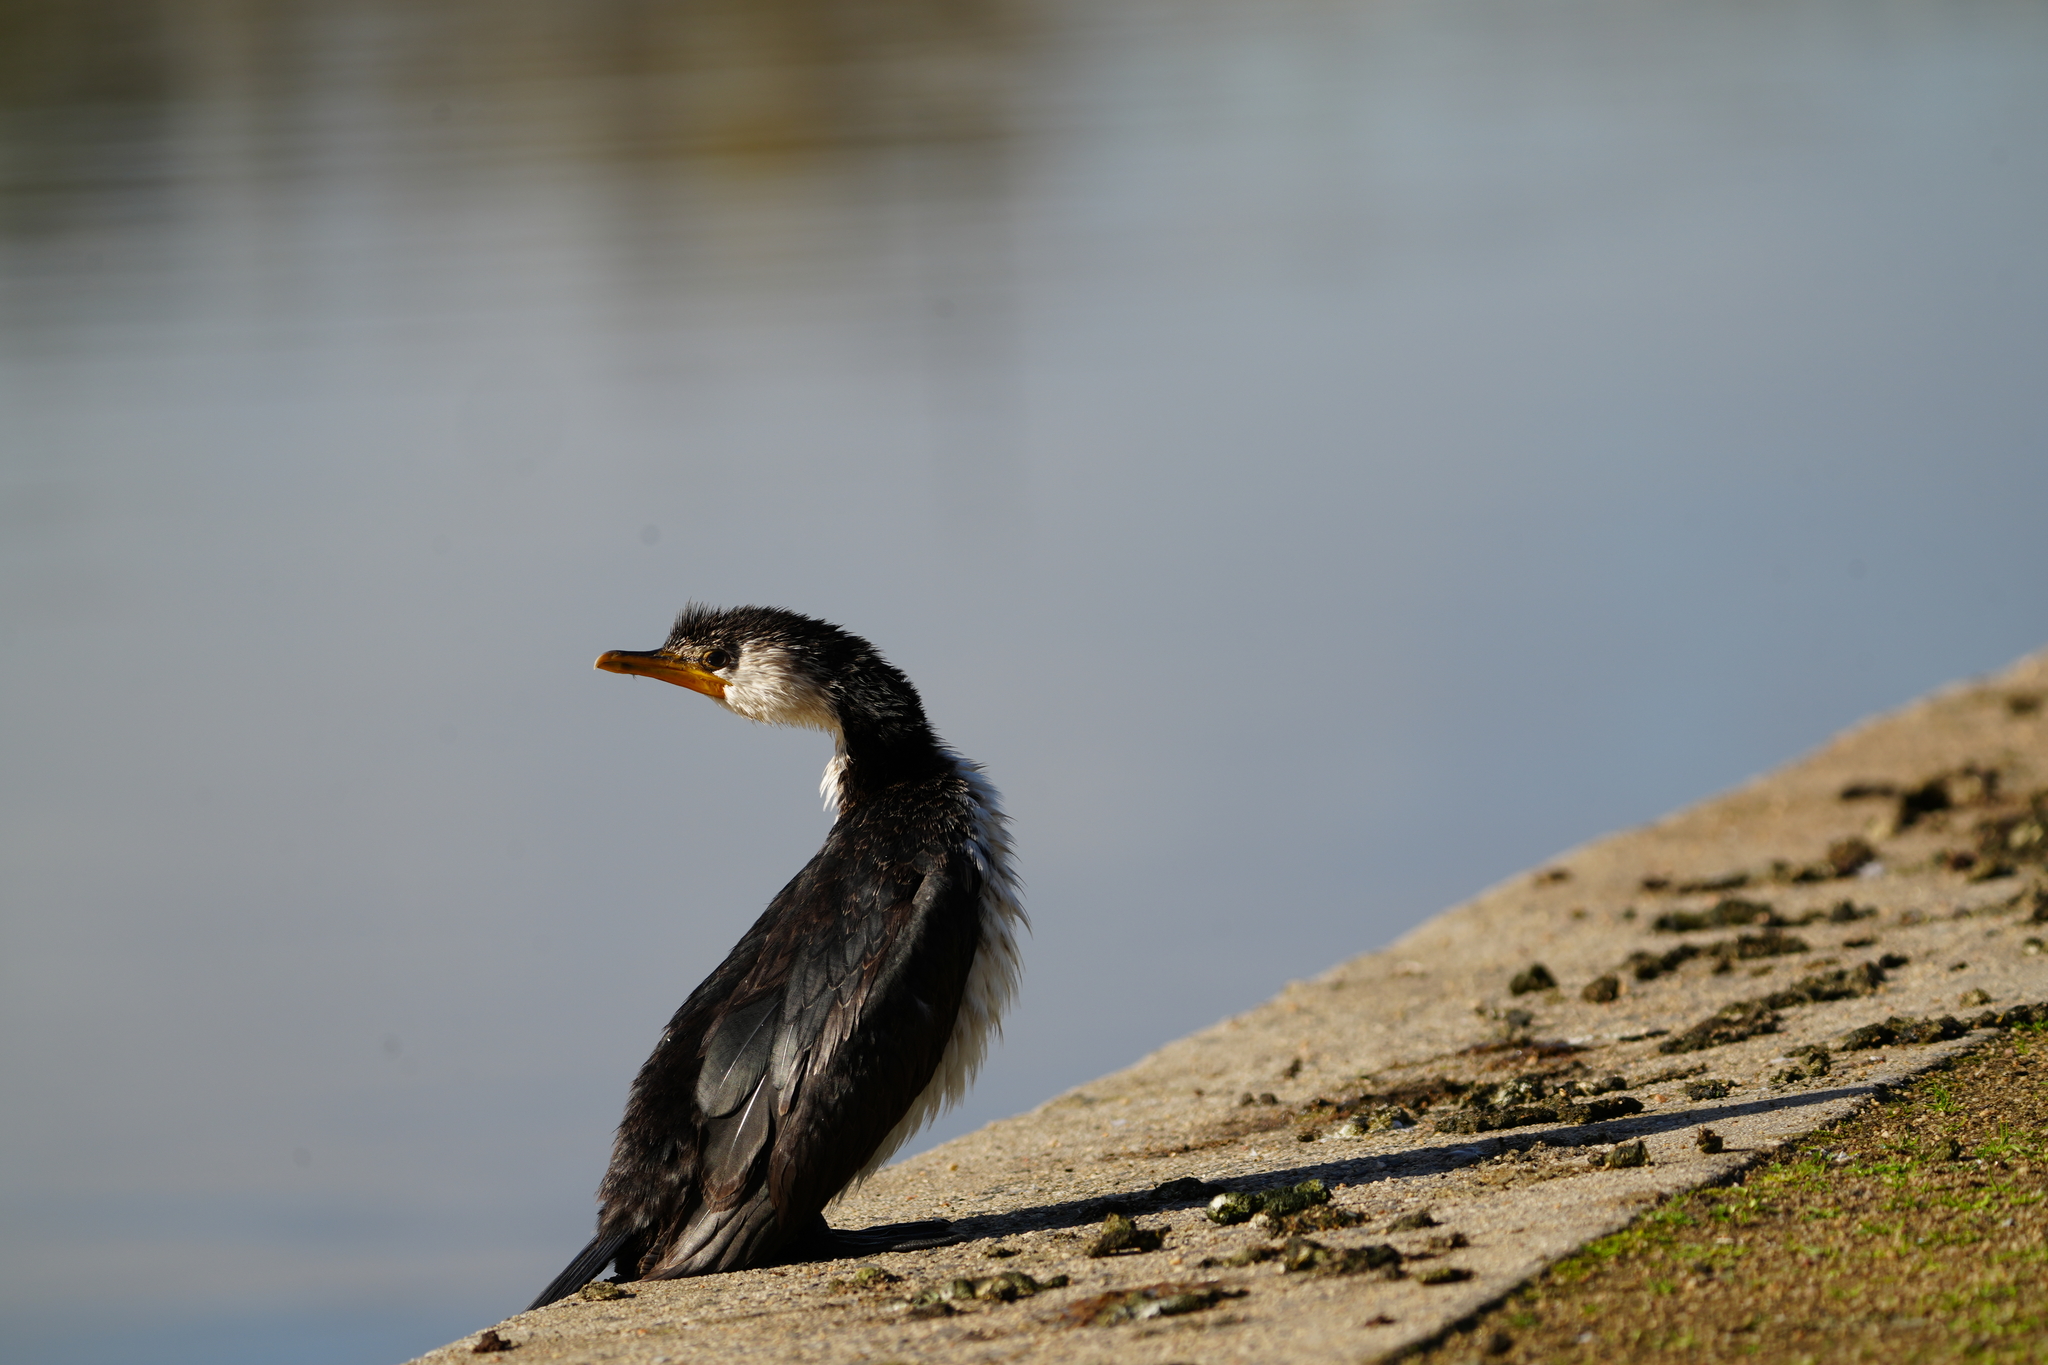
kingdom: Animalia
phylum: Chordata
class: Aves
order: Suliformes
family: Phalacrocoracidae
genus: Microcarbo
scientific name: Microcarbo melanoleucos
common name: Little pied cormorant
